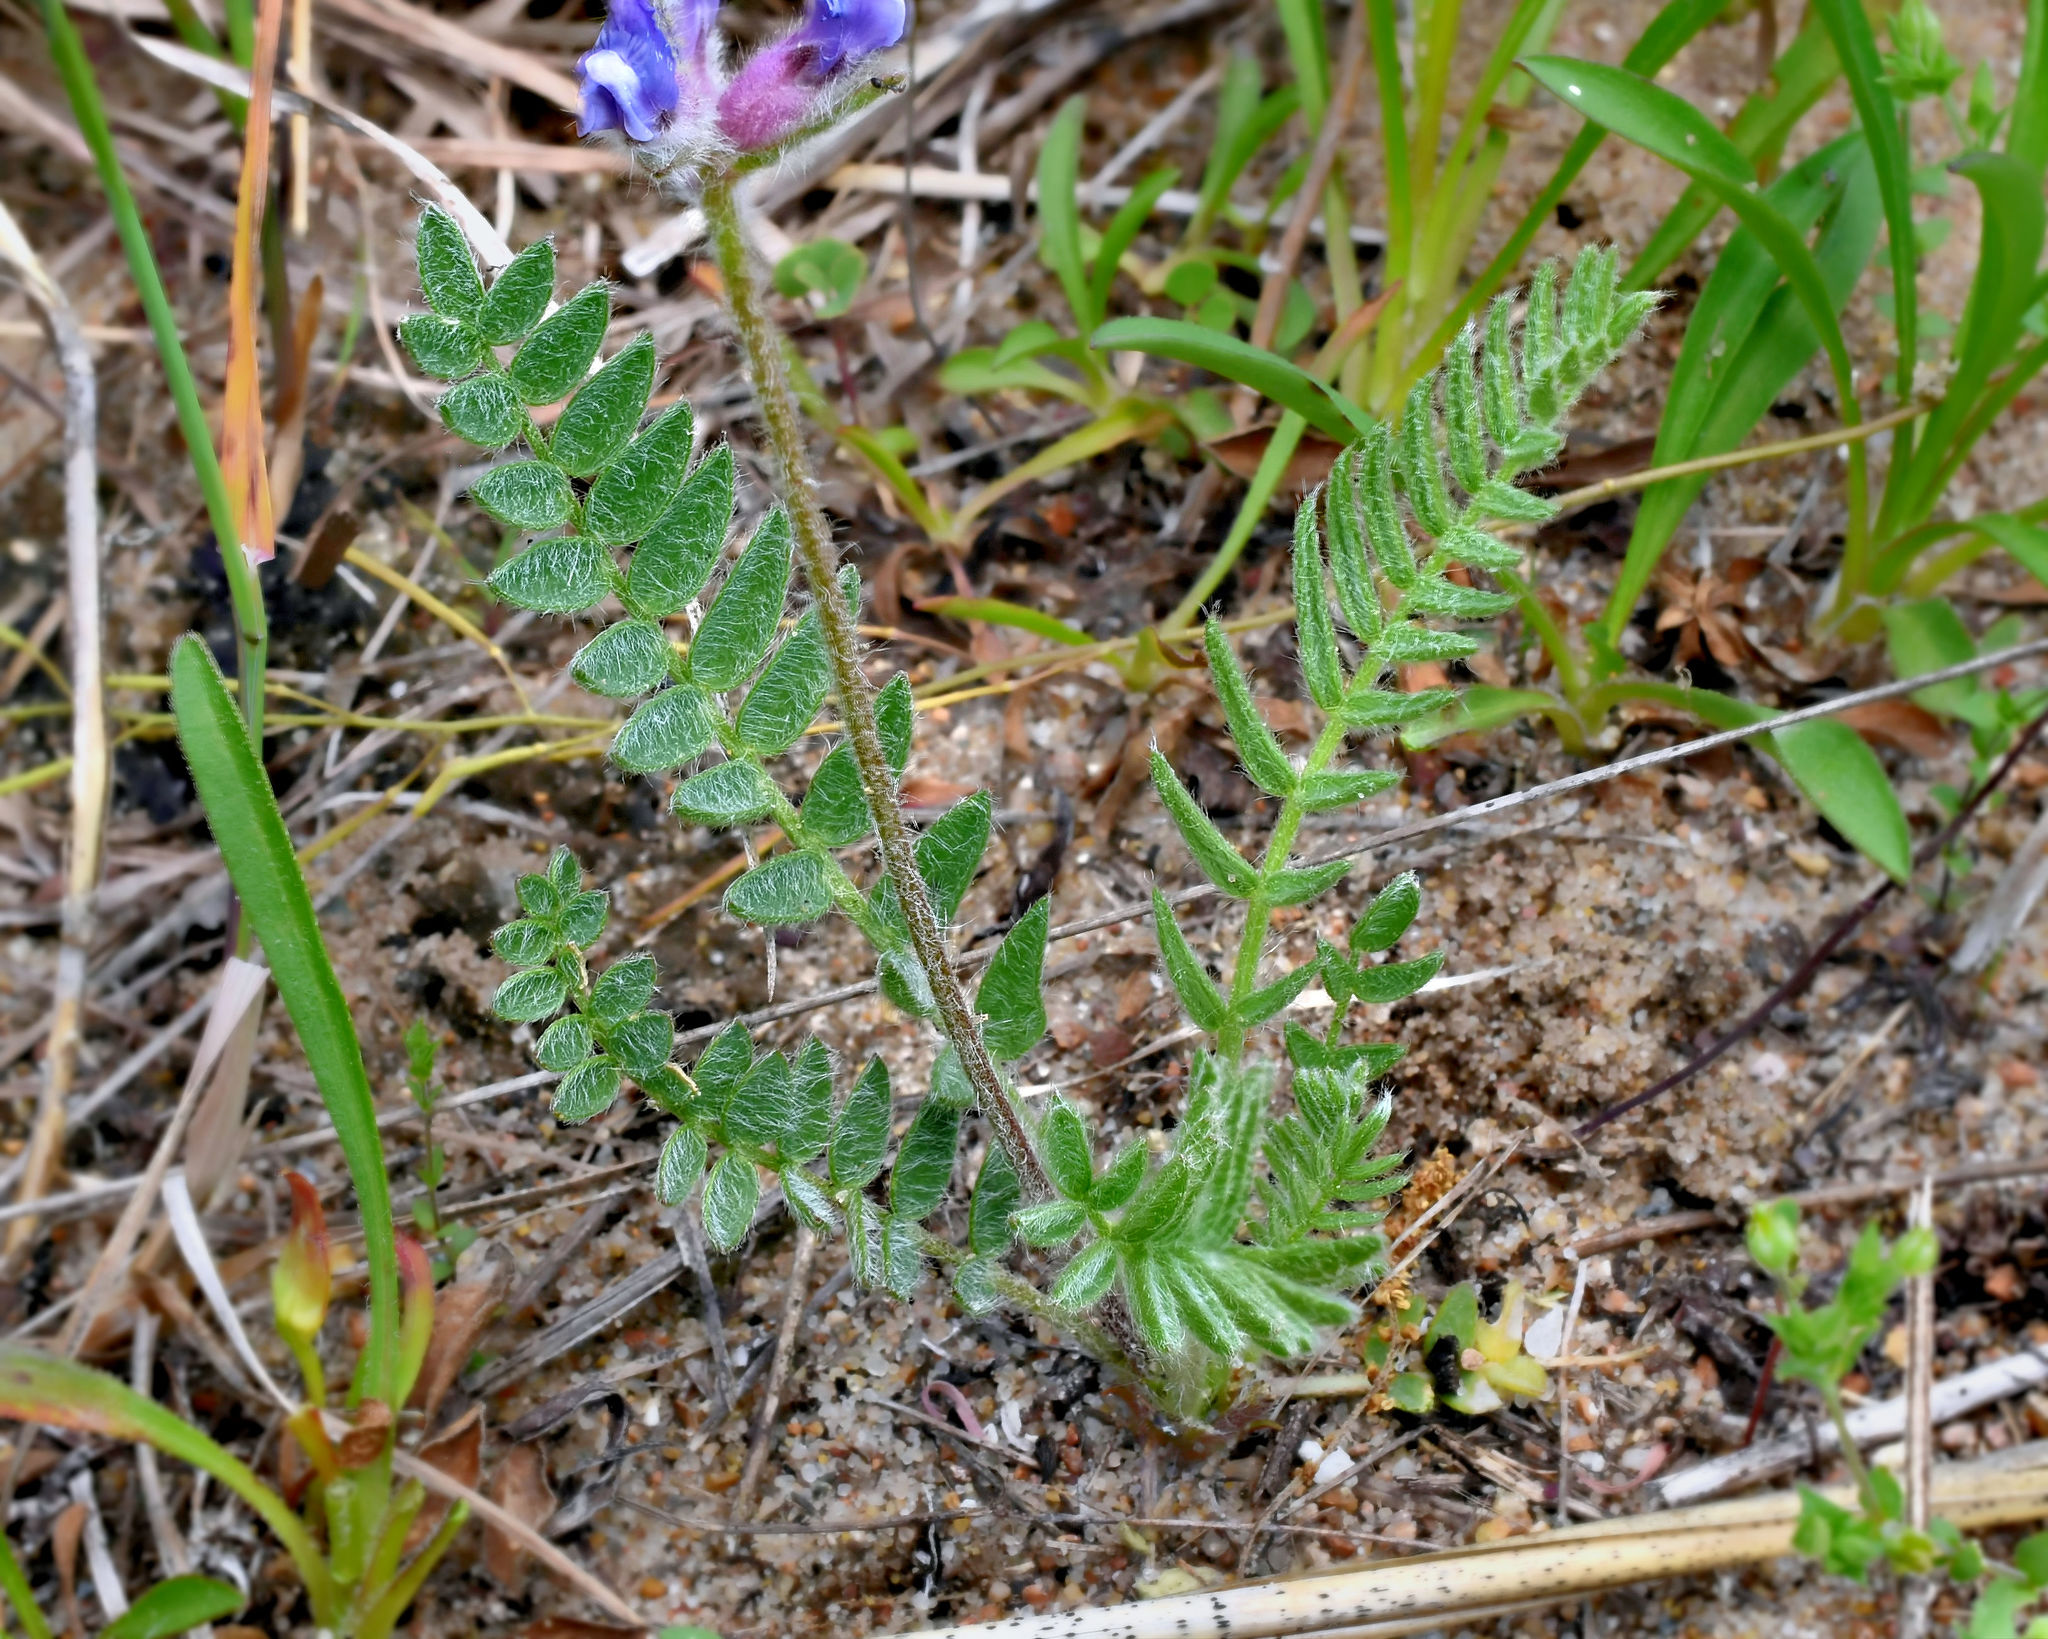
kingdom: Plantae
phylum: Tracheophyta
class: Magnoliopsida
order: Fabales
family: Fabaceae
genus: Oxytropis
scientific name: Oxytropis campestris
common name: Field locoweed
